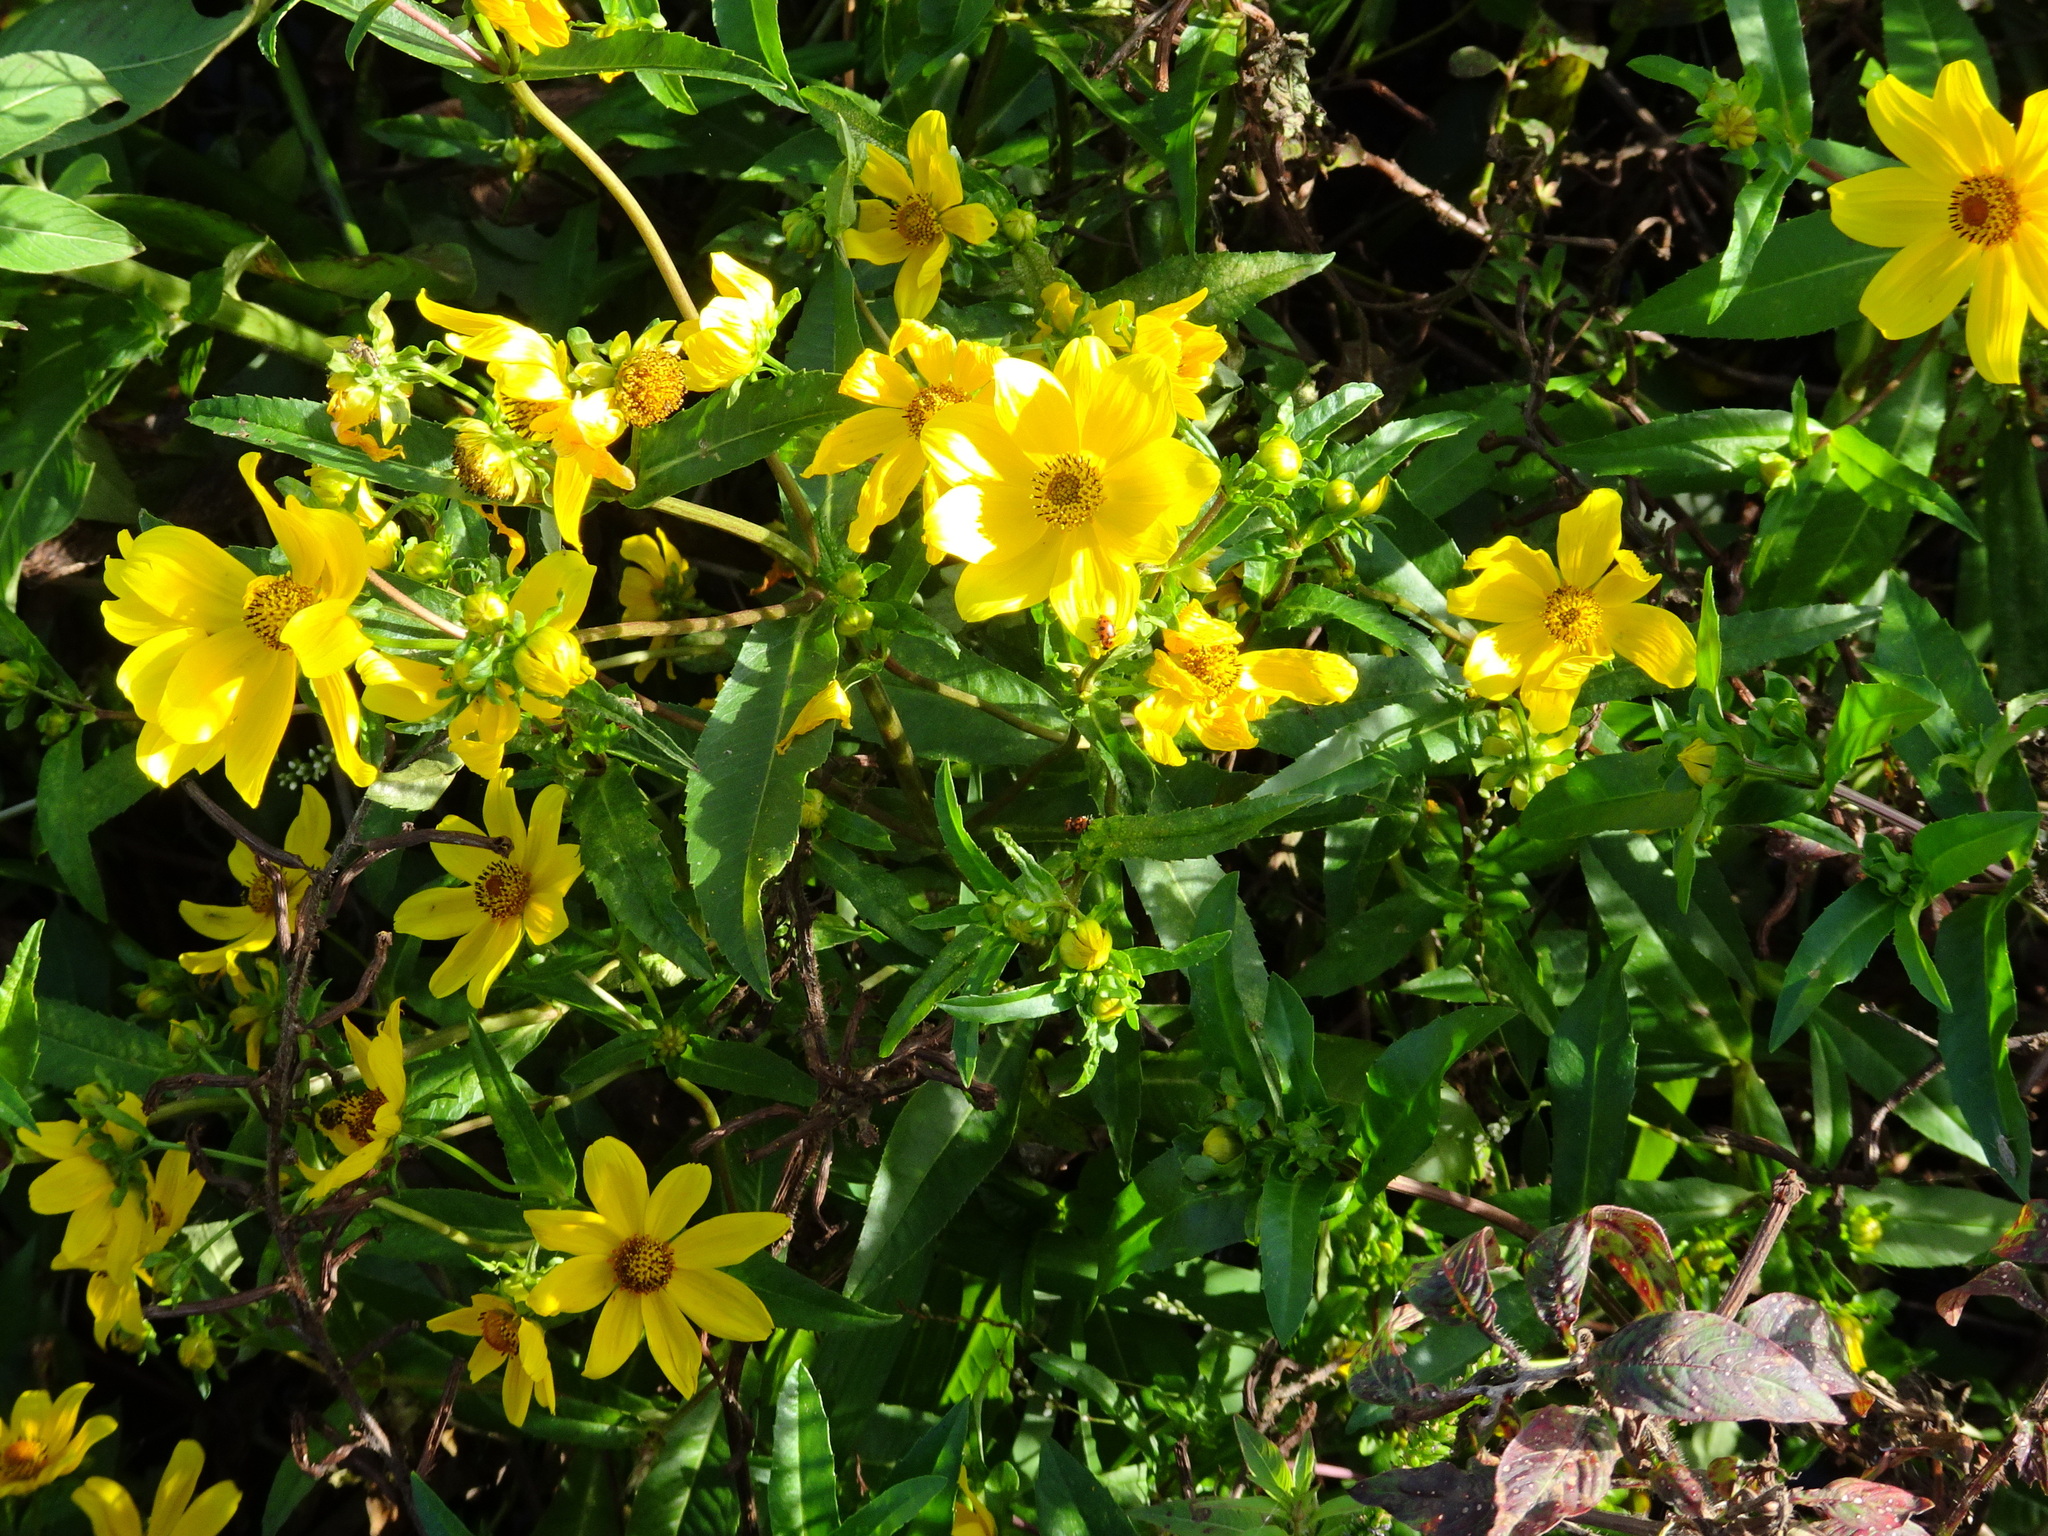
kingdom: Plantae
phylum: Tracheophyta
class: Magnoliopsida
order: Asterales
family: Asteraceae
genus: Bidens
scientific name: Bidens laevis
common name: Larger bur-marigold
